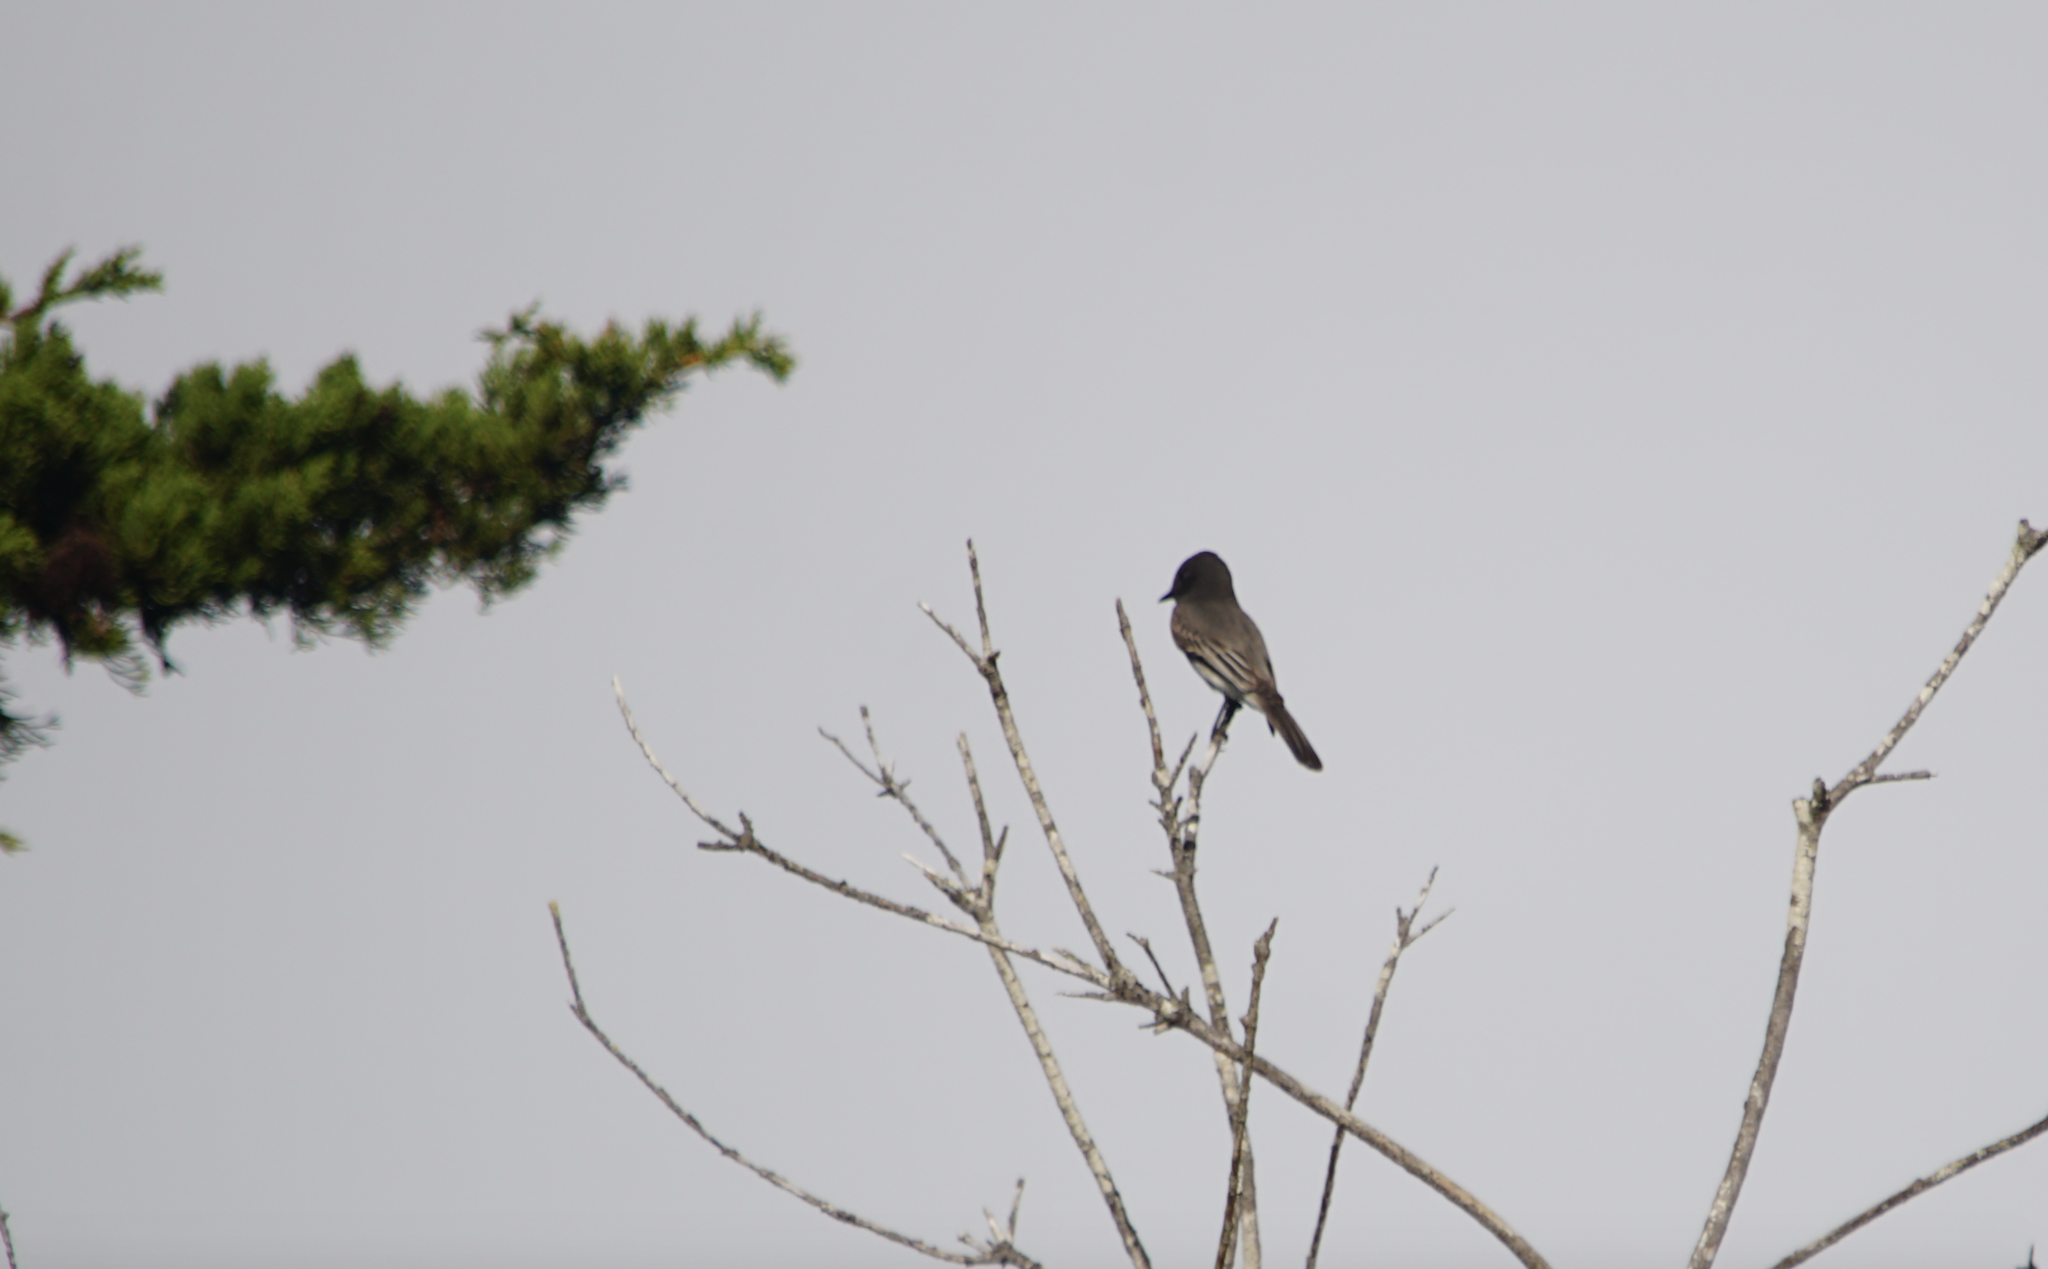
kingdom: Animalia
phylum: Chordata
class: Aves
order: Passeriformes
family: Tyrannidae
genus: Sayornis
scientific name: Sayornis nigricans
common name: Black phoebe
